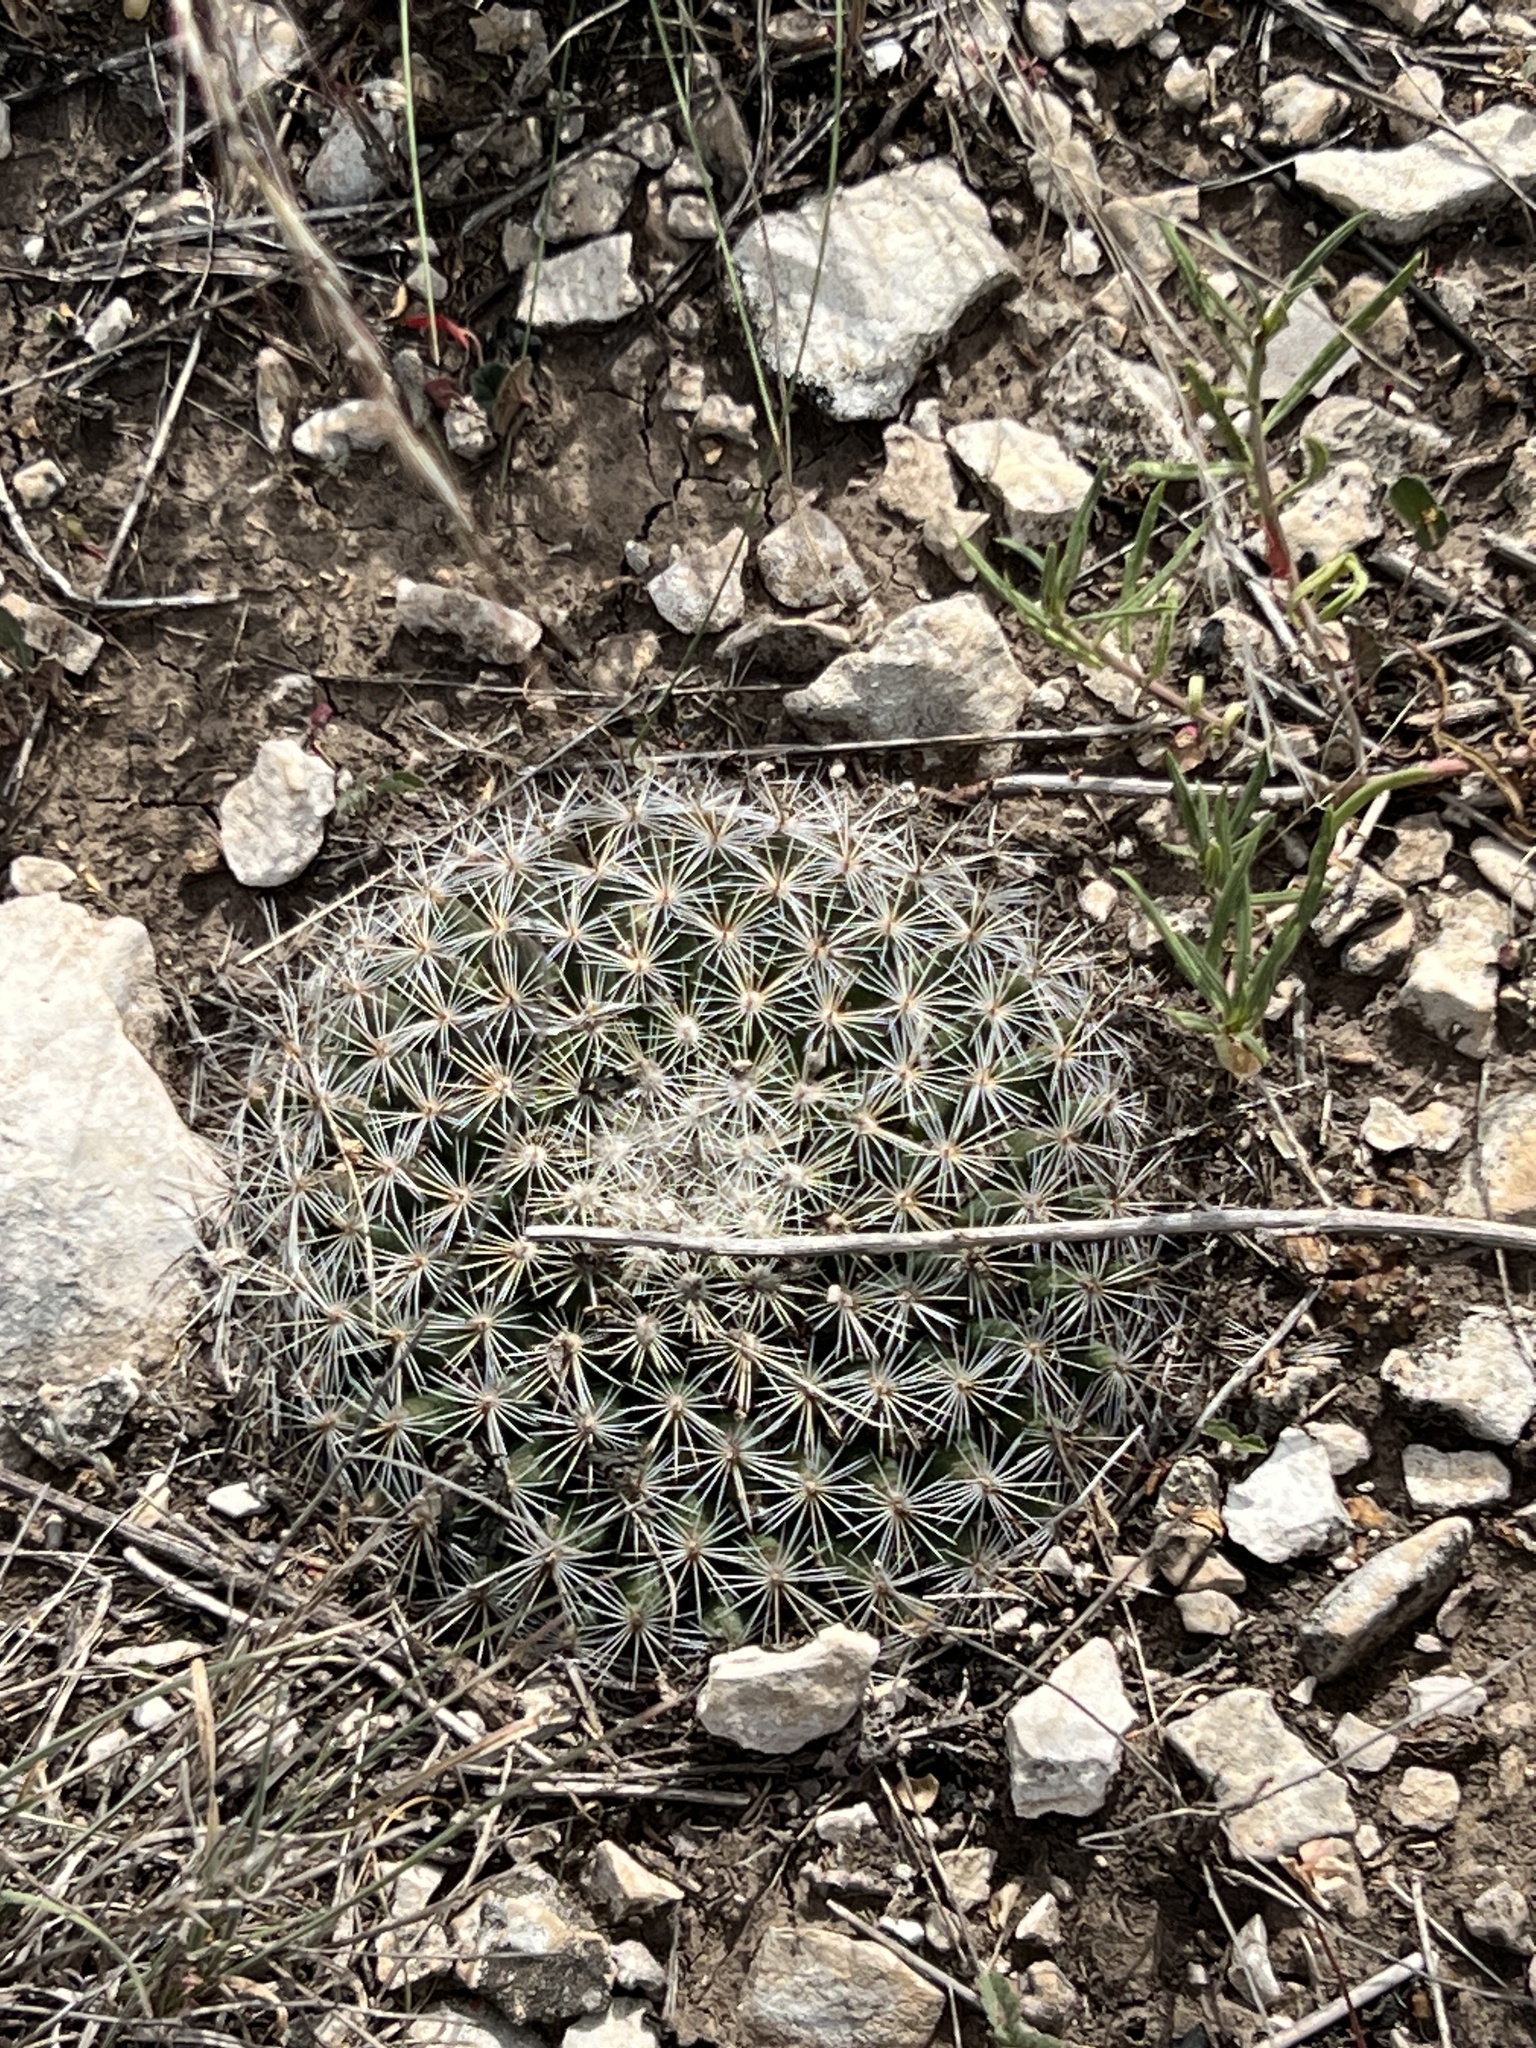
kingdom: Plantae
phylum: Tracheophyta
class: Magnoliopsida
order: Caryophyllales
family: Cactaceae
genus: Mammillaria
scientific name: Mammillaria heyderi
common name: Little nipple cactus
